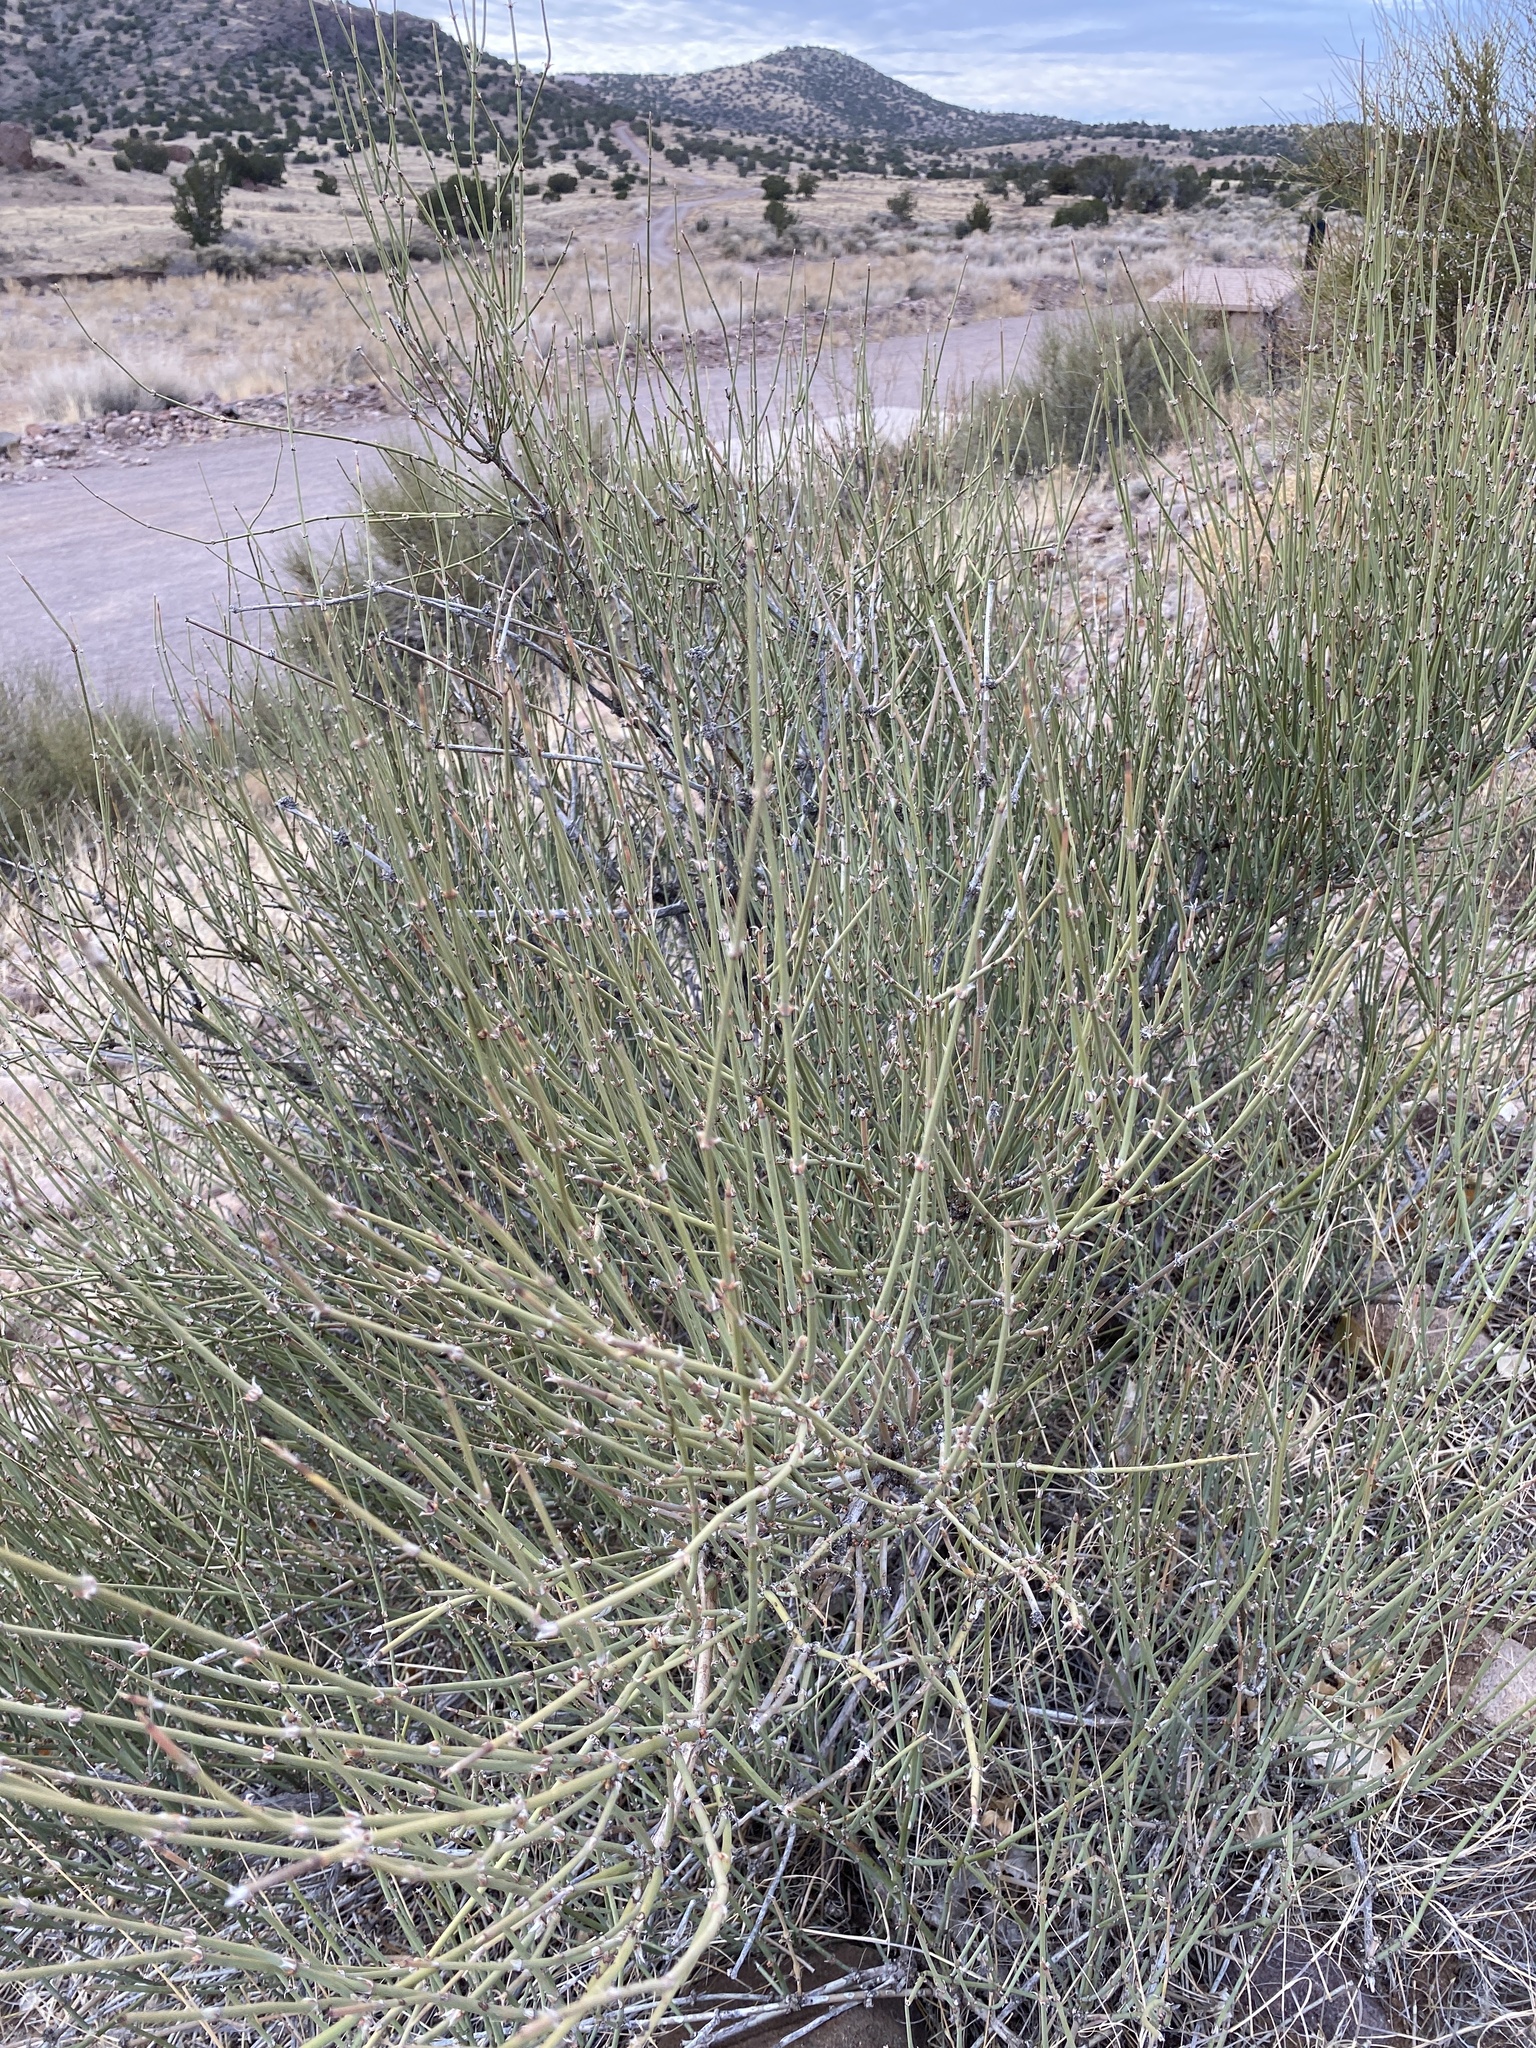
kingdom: Plantae
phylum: Tracheophyta
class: Gnetopsida
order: Ephedrales
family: Ephedraceae
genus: Ephedra
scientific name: Ephedra trifurca
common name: Mexican-tea
